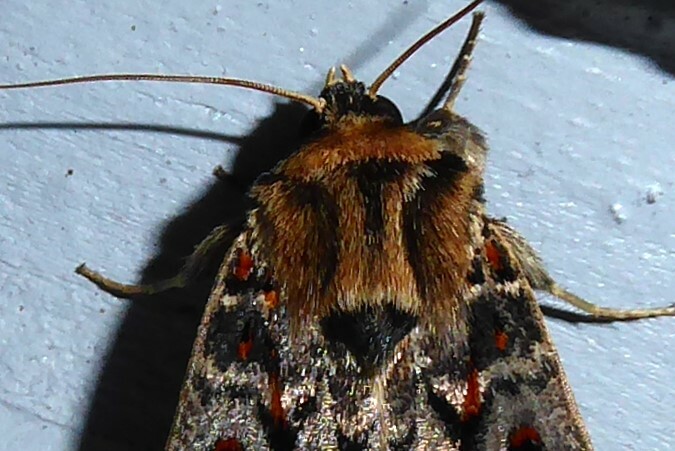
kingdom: Animalia
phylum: Arthropoda
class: Insecta
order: Lepidoptera
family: Noctuidae
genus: Proteuxoa
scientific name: Proteuxoa sanguinipuncta
